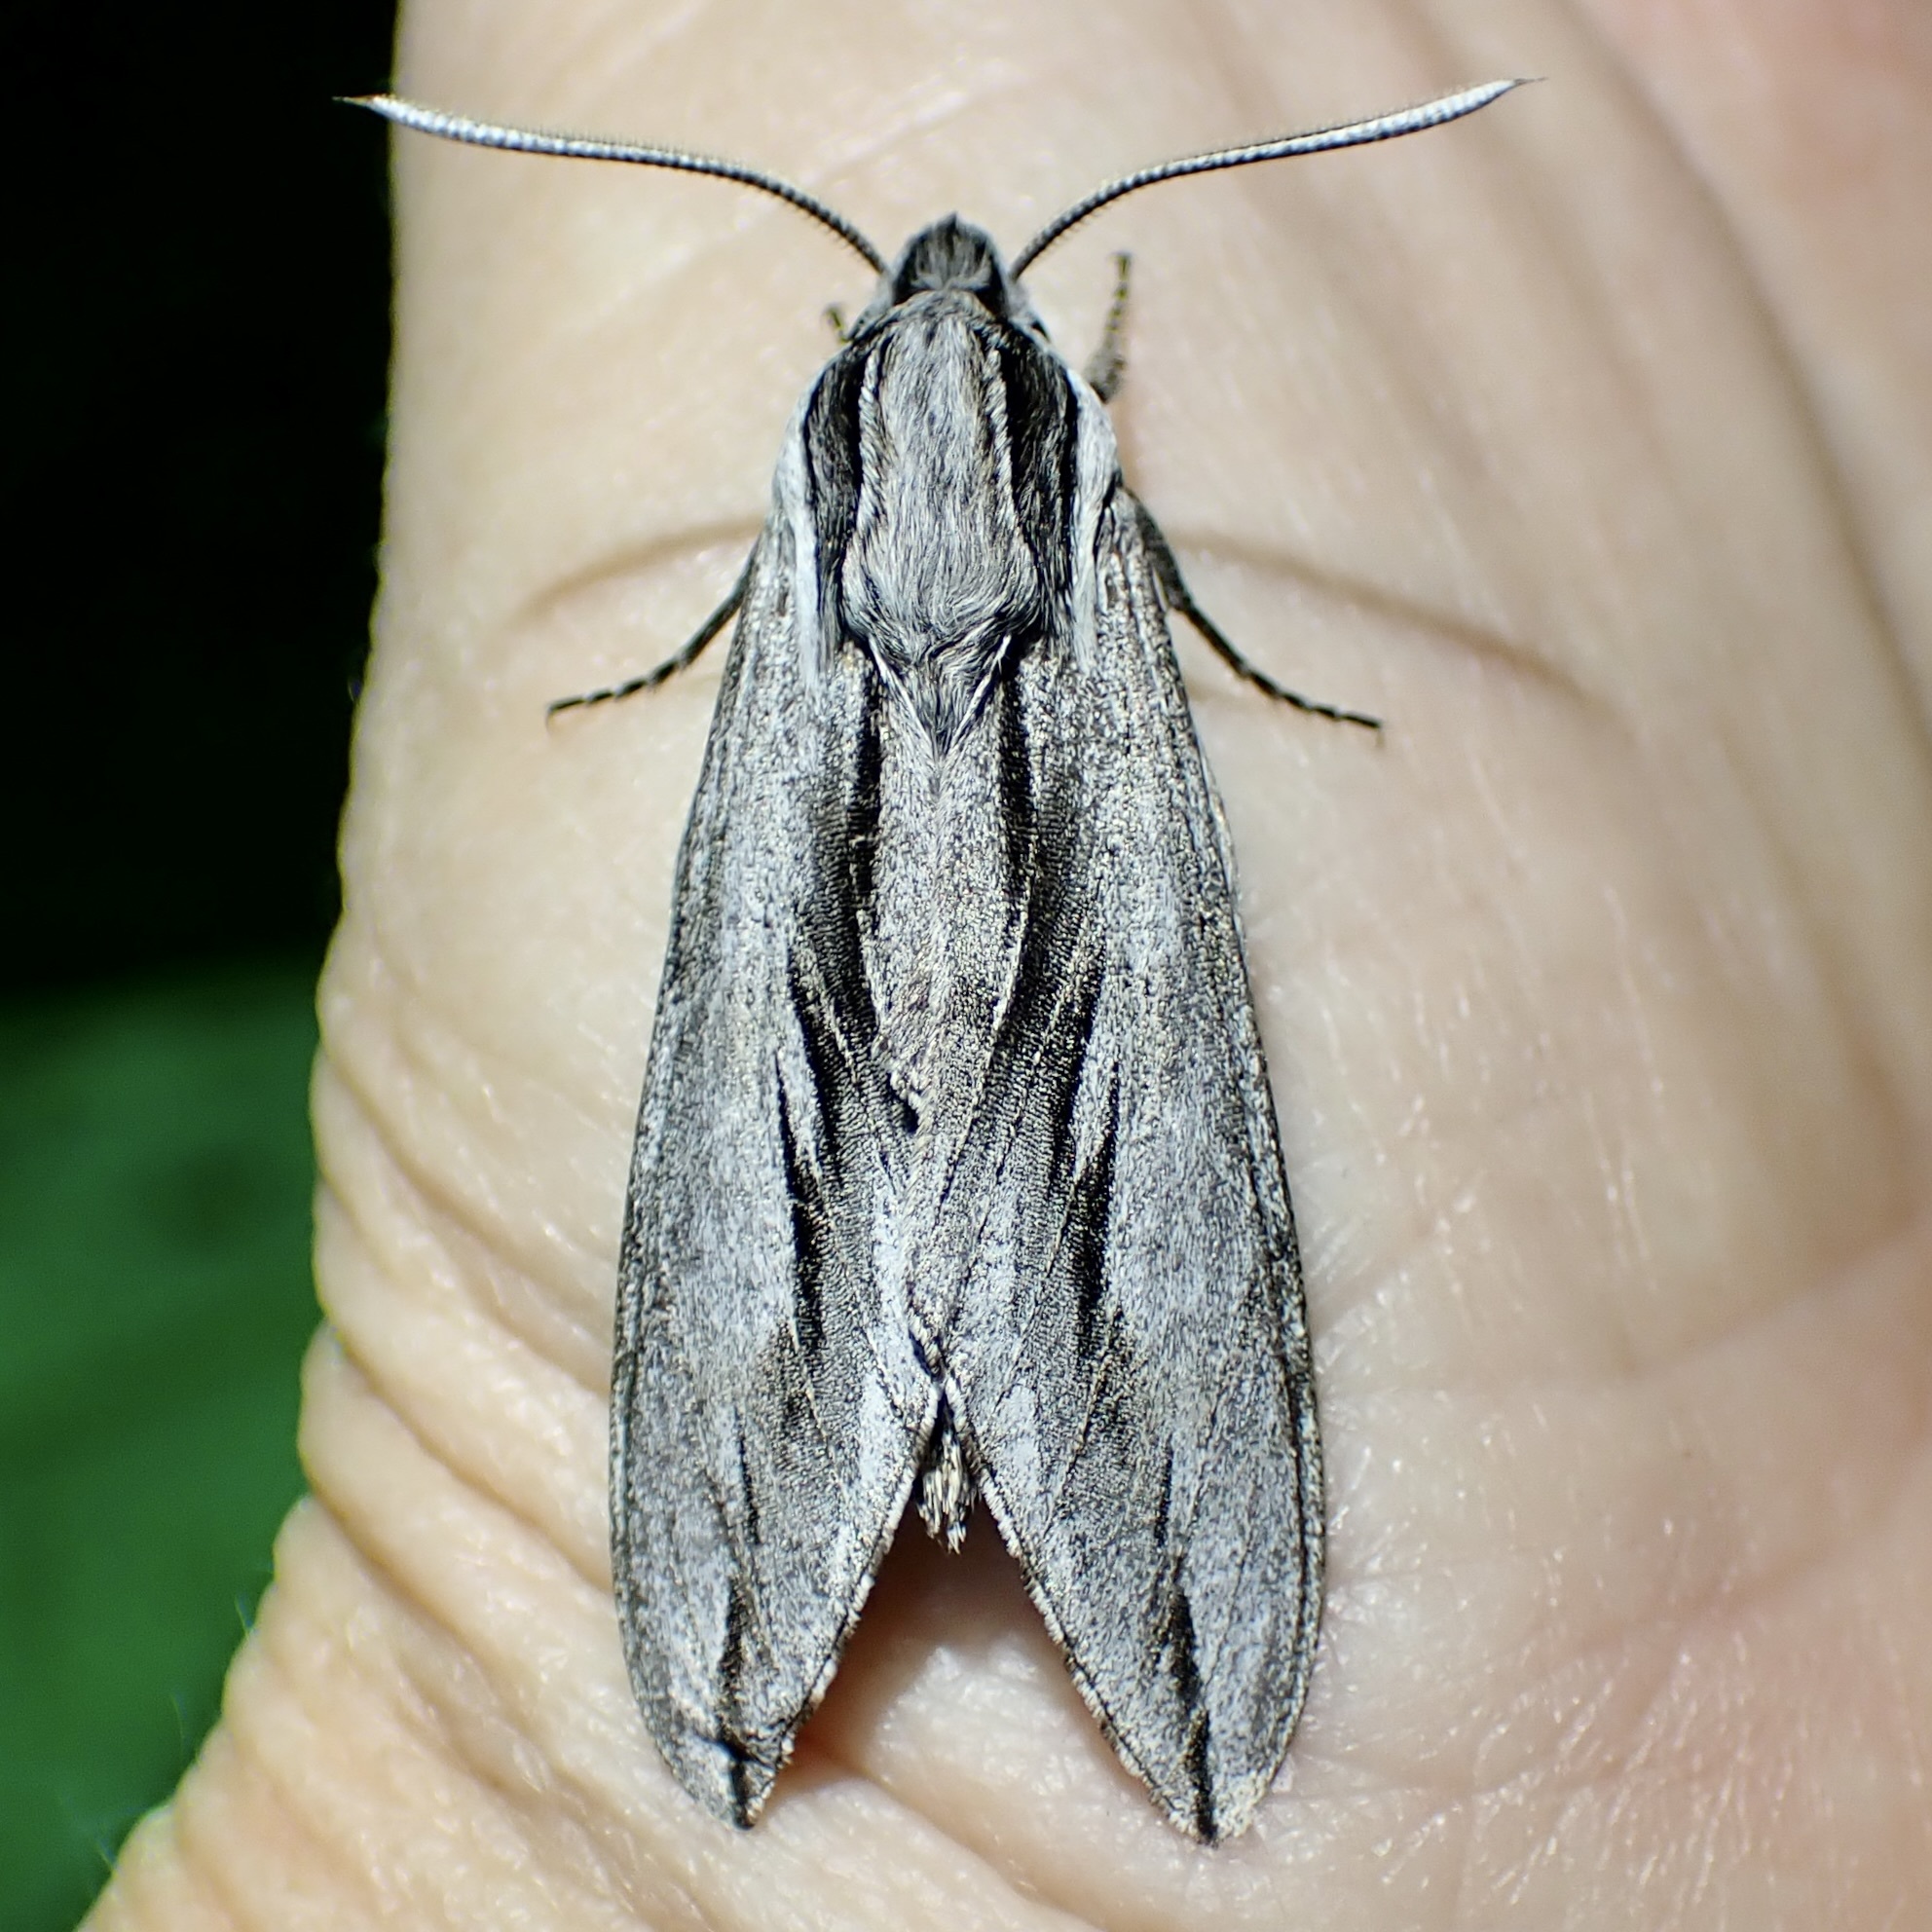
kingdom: Animalia
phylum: Arthropoda
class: Insecta
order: Lepidoptera
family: Sphingidae
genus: Sphinx
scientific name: Sphinx dollii
